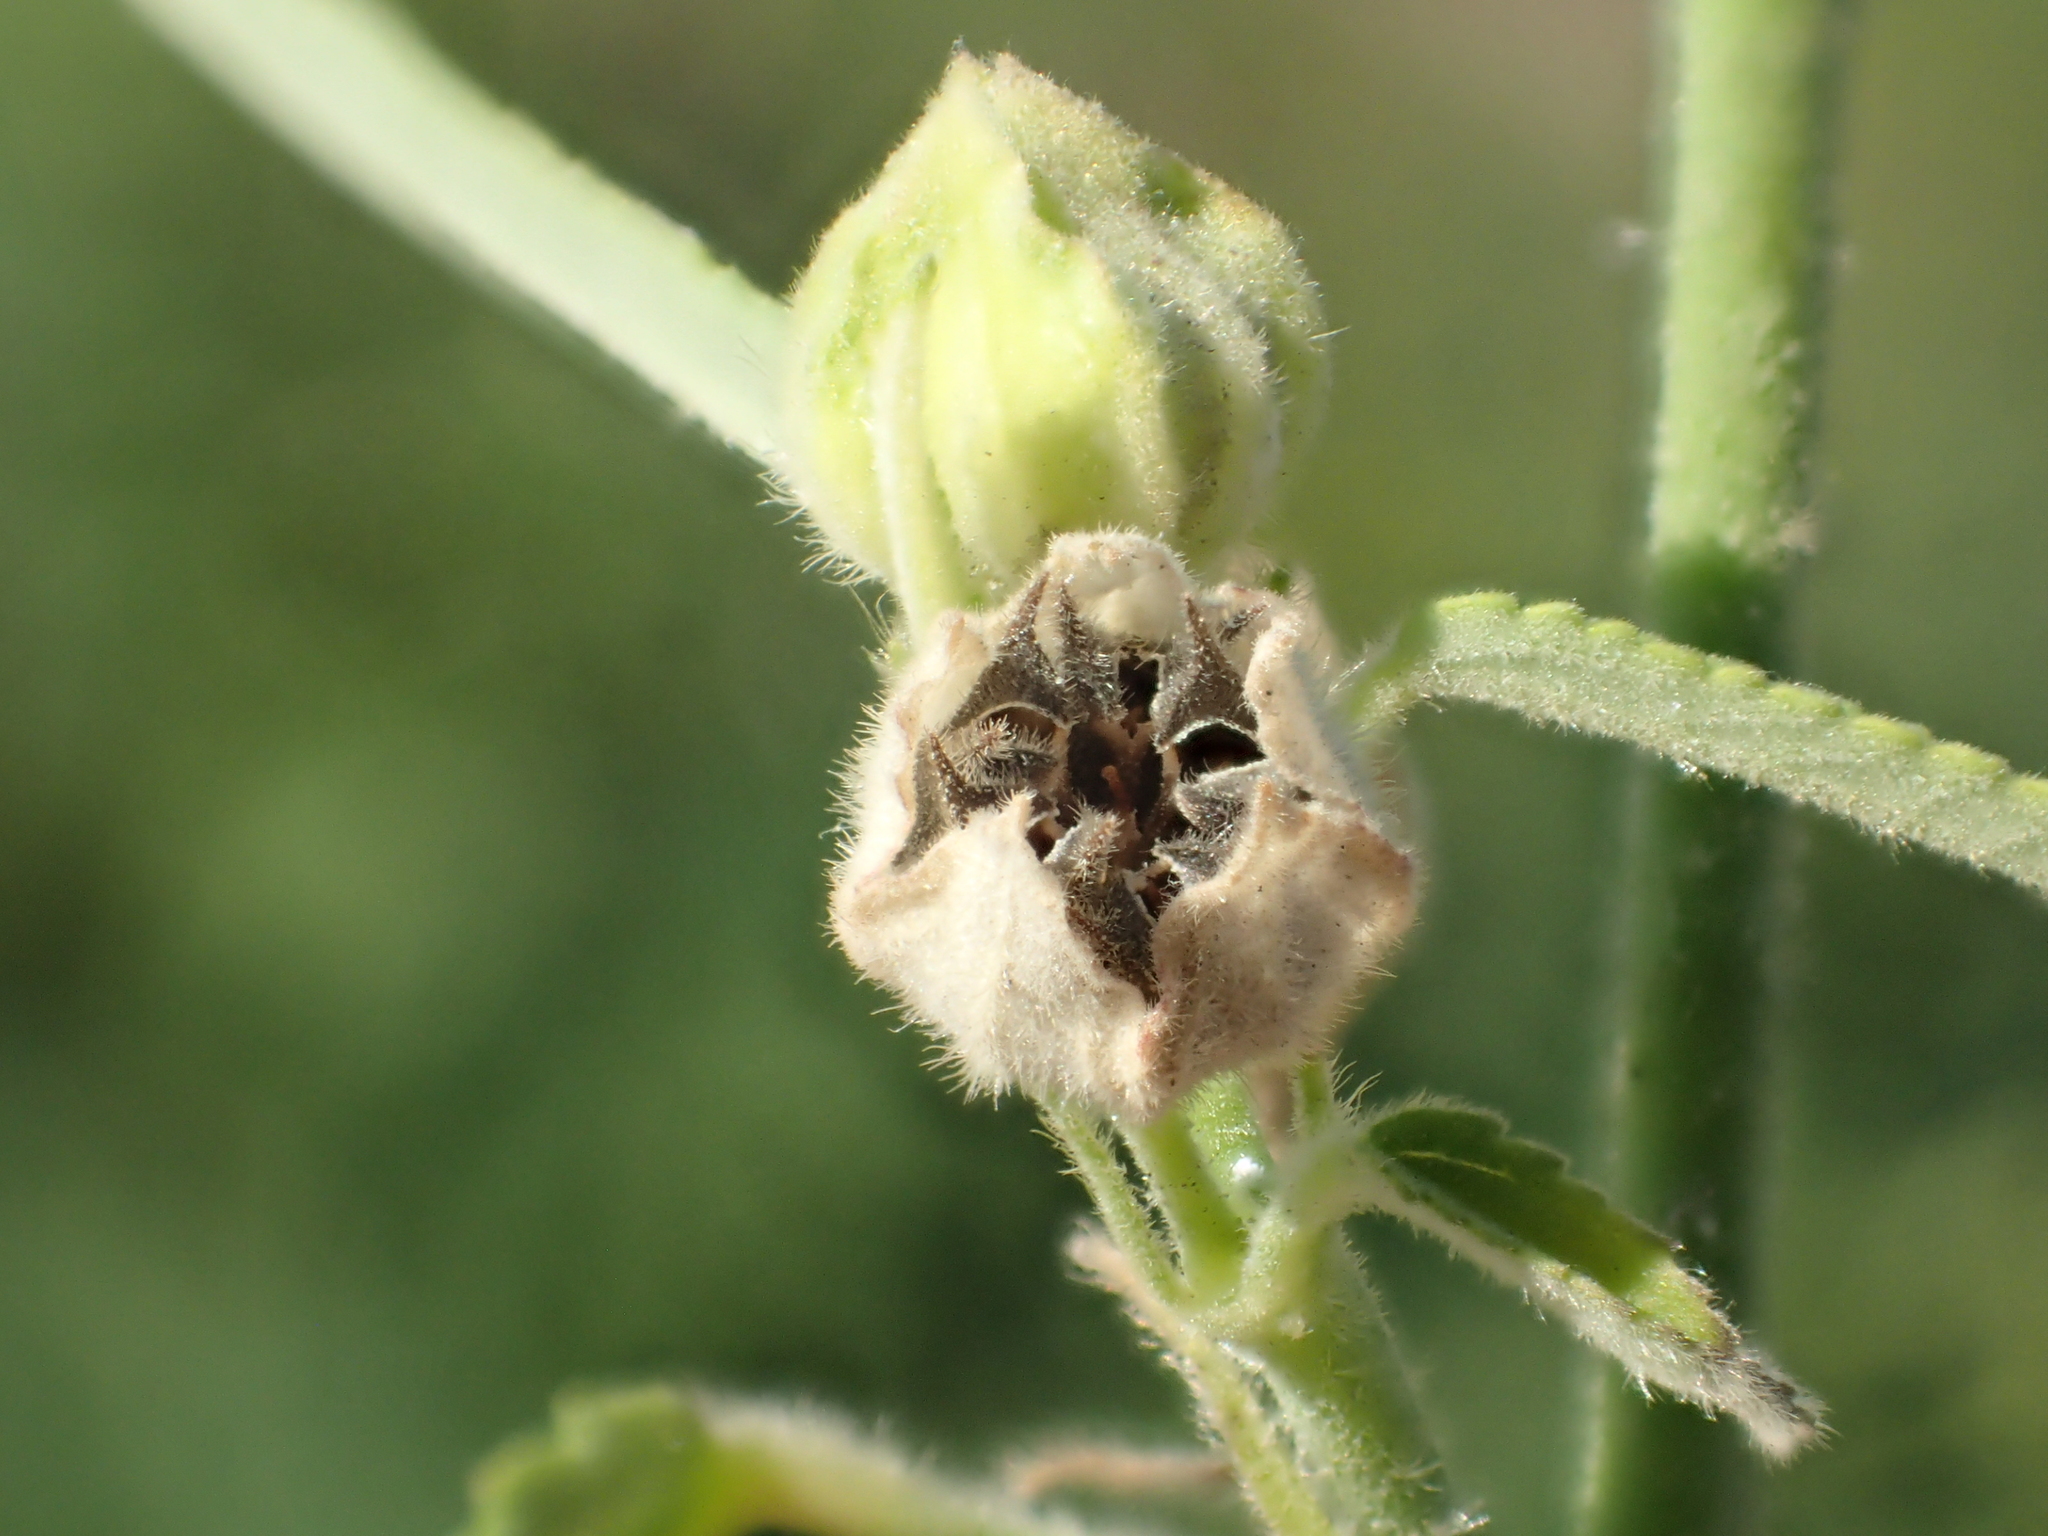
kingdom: Plantae
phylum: Tracheophyta
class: Magnoliopsida
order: Malvales
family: Malvaceae
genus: Sida
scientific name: Sida spinosa
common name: Prickly fanpetals
